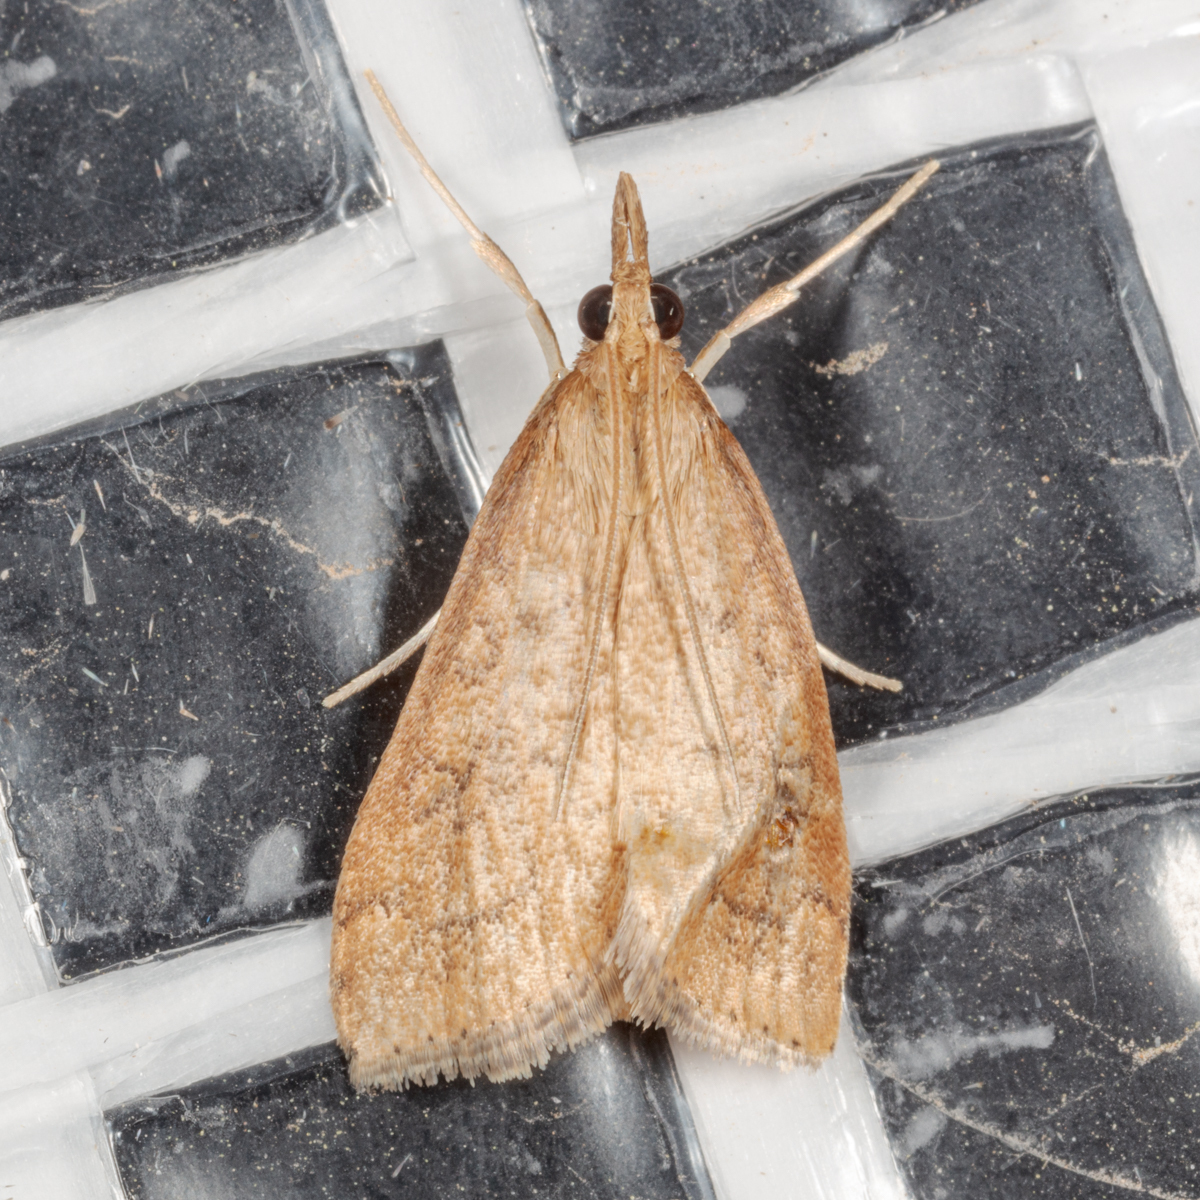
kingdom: Animalia
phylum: Arthropoda
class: Insecta
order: Lepidoptera
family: Crambidae
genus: Udea
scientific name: Udea rubigalis
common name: Celery leaftier moth
